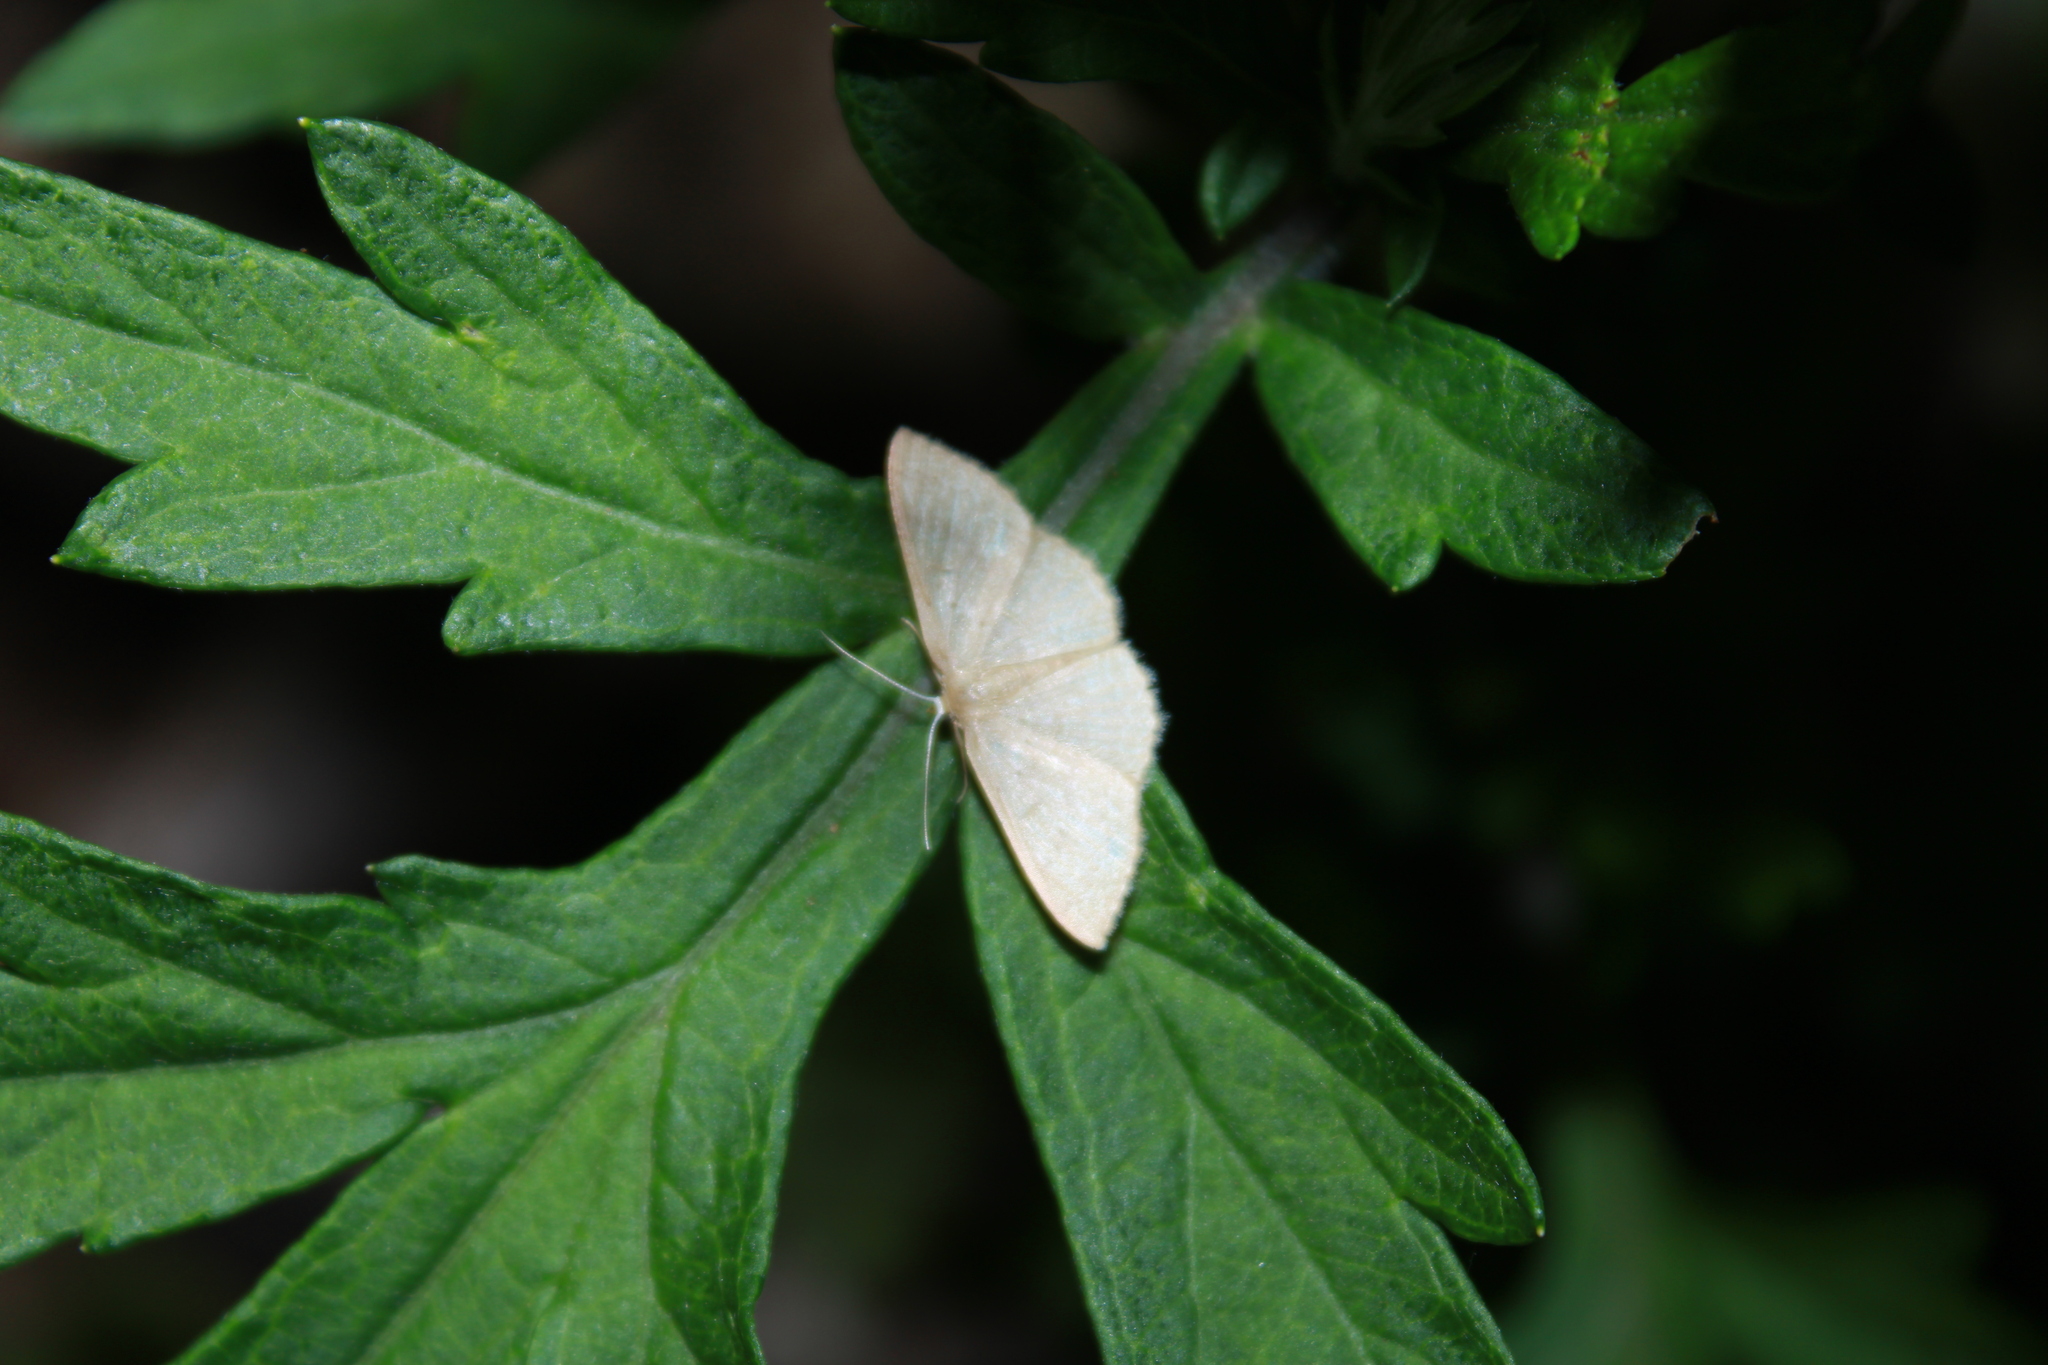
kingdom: Animalia
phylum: Arthropoda
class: Insecta
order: Lepidoptera
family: Geometridae
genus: Pleuroprucha
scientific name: Pleuroprucha insulsaria
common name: Common tan wave
